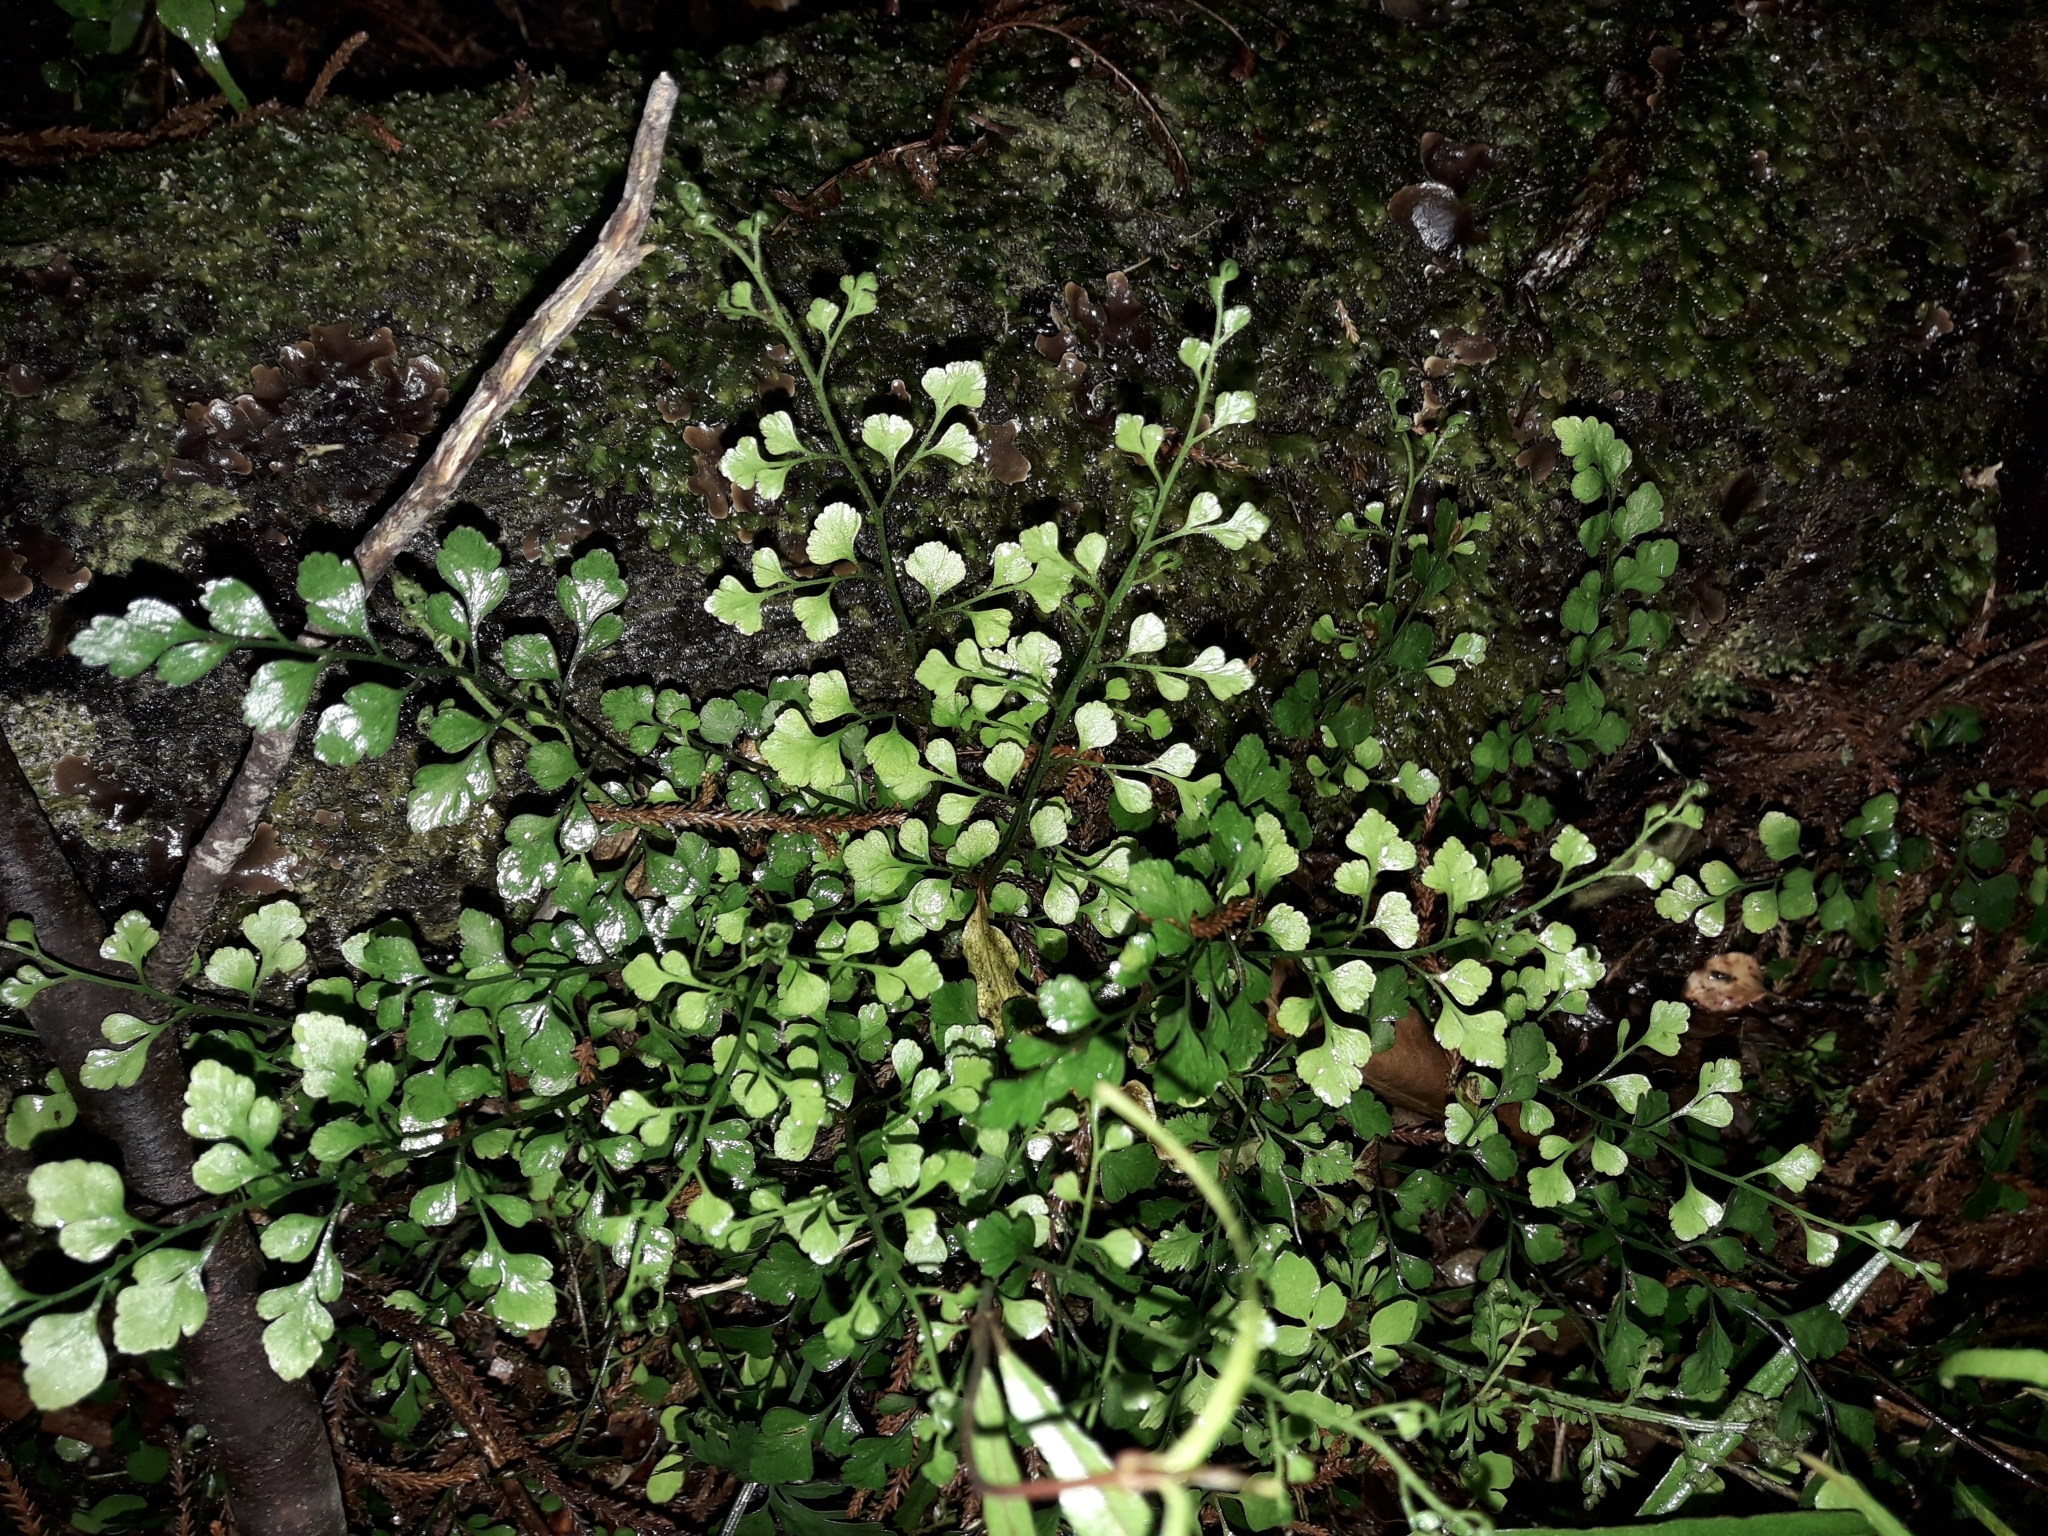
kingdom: Plantae
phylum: Tracheophyta
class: Polypodiopsida
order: Polypodiales
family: Aspleniaceae
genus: Asplenium
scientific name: Asplenium hookerianum
